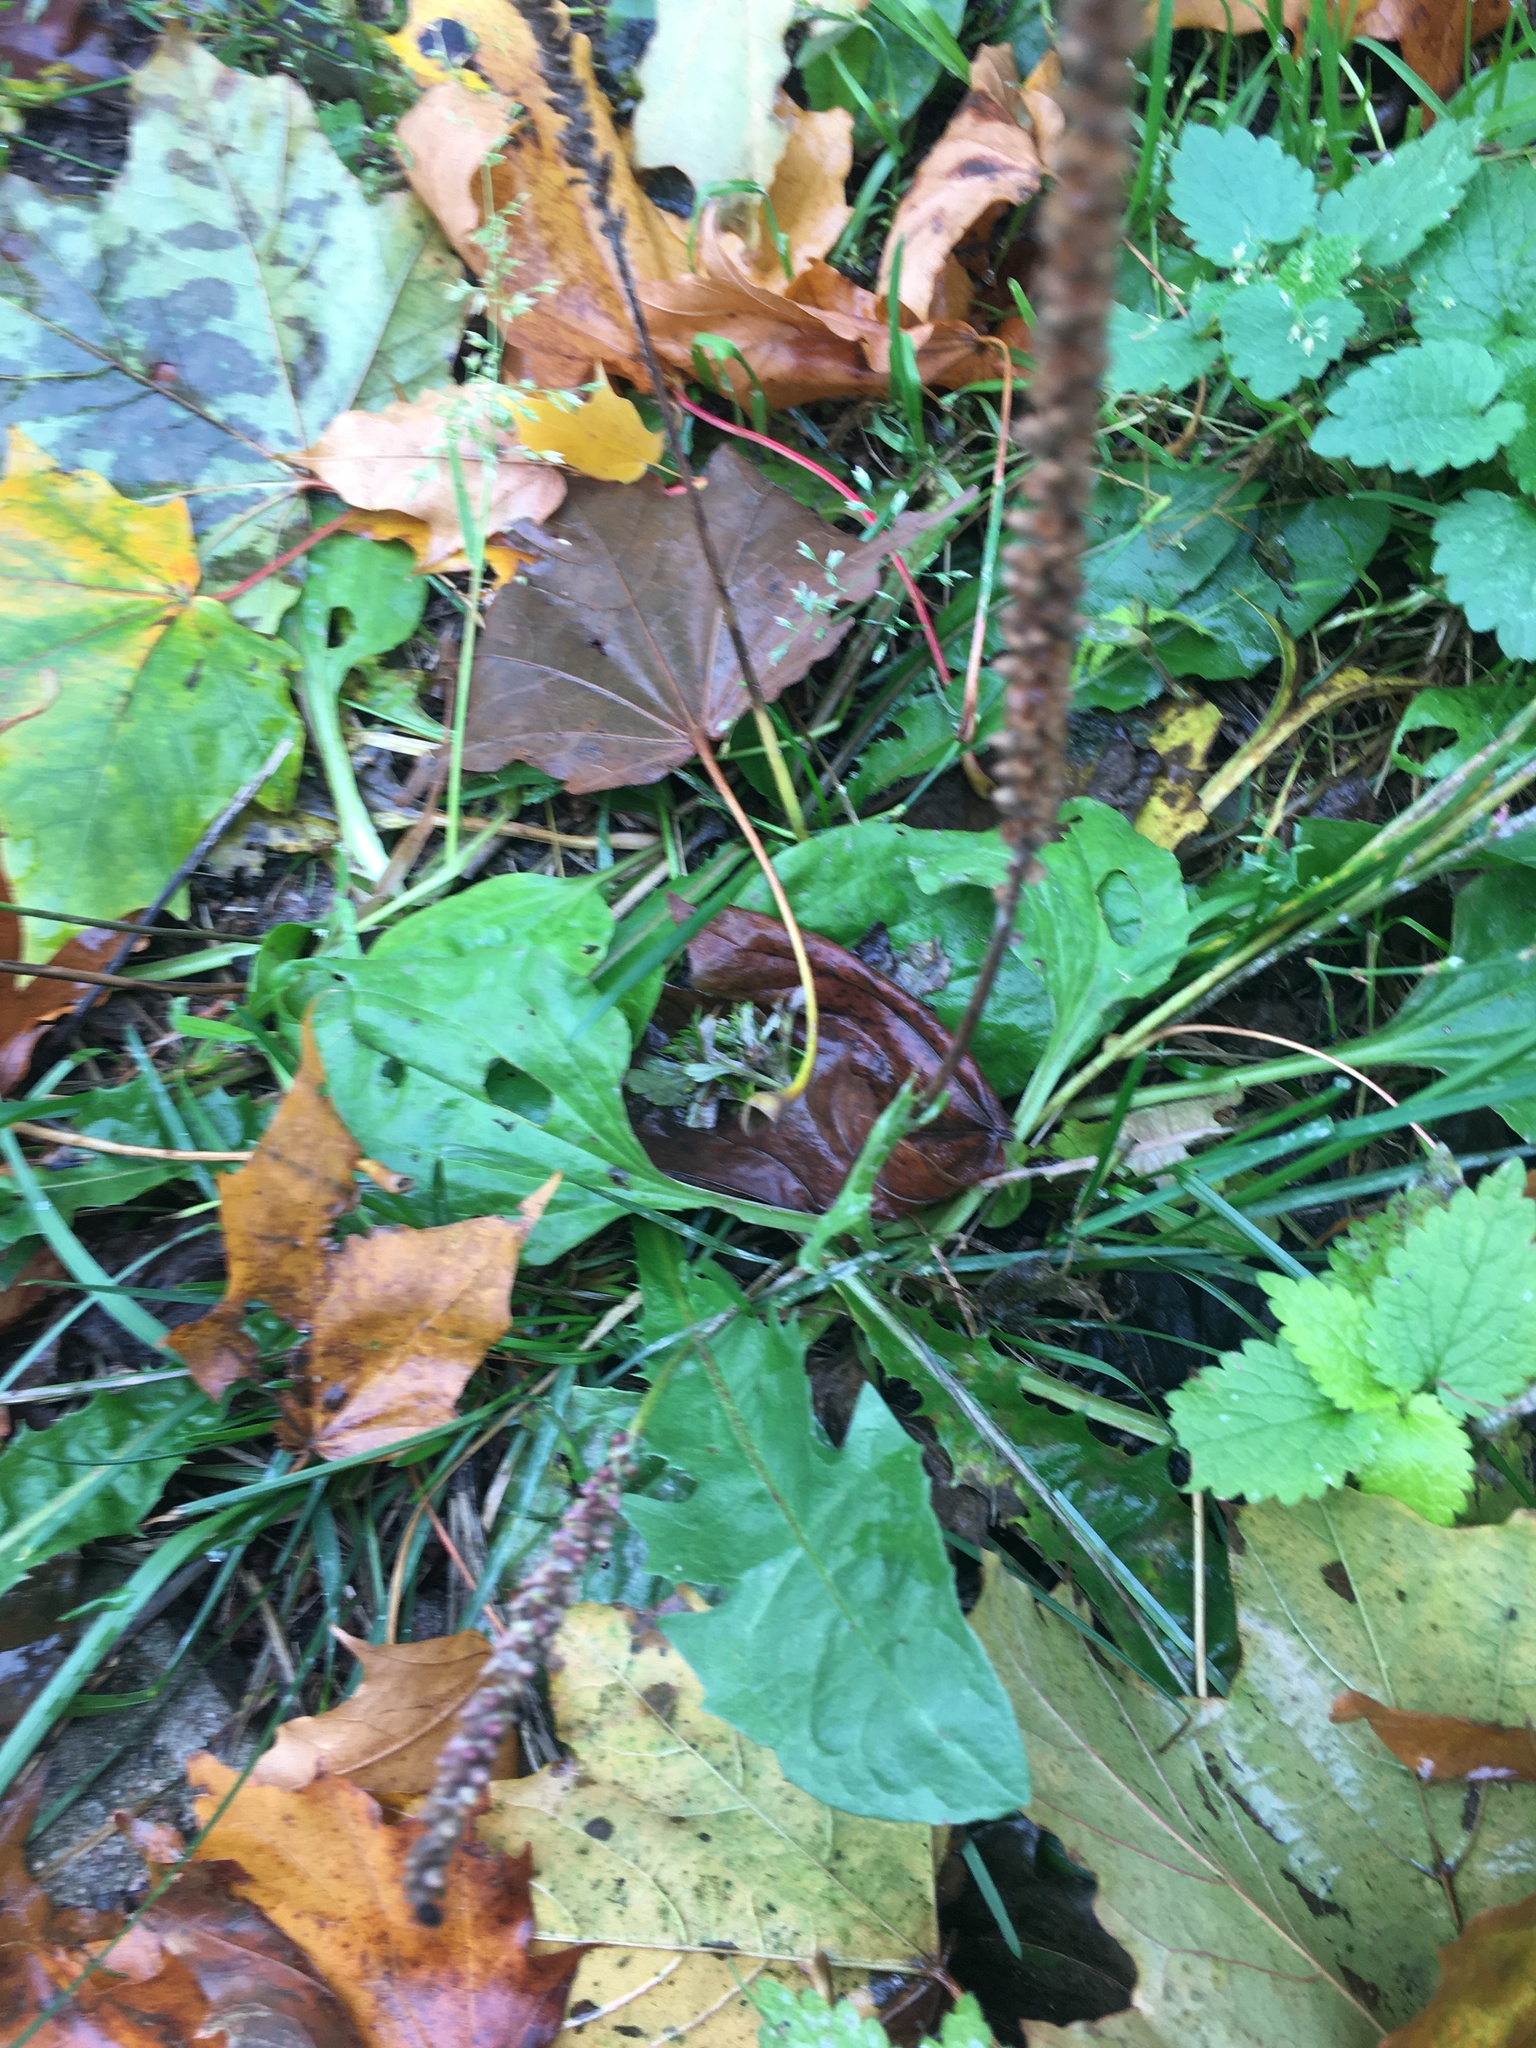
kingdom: Plantae
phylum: Tracheophyta
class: Magnoliopsida
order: Lamiales
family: Plantaginaceae
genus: Plantago
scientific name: Plantago major
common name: Common plantain
